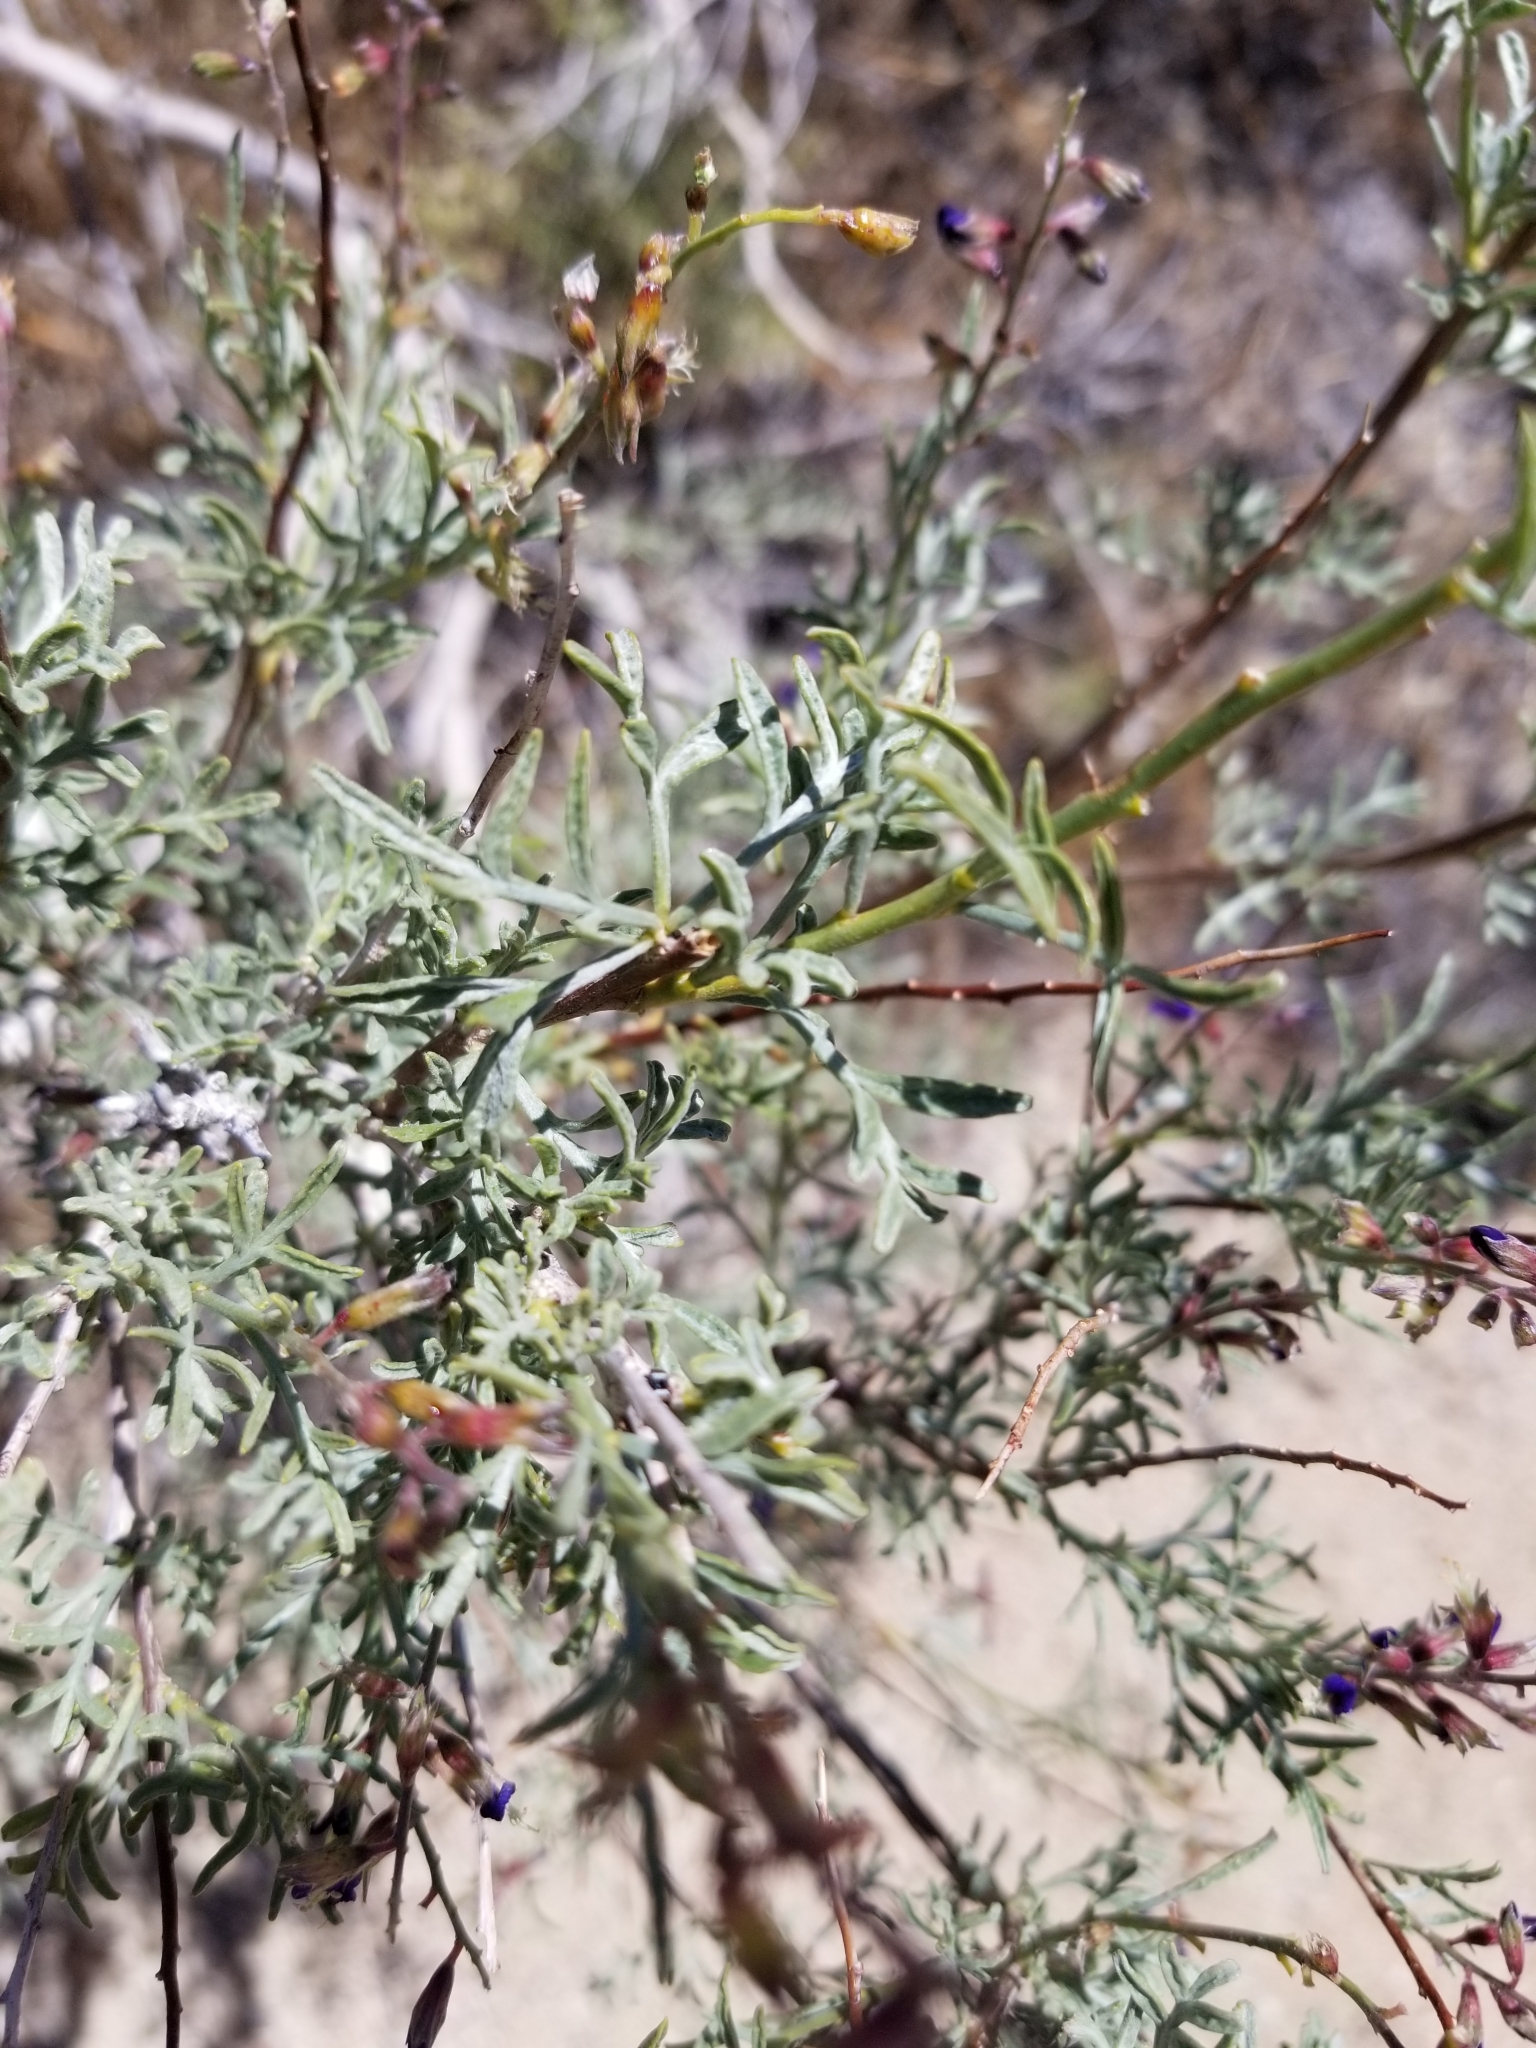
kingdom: Plantae
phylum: Tracheophyta
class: Magnoliopsida
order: Fabales
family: Fabaceae
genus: Psorothamnus
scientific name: Psorothamnus arborescens
